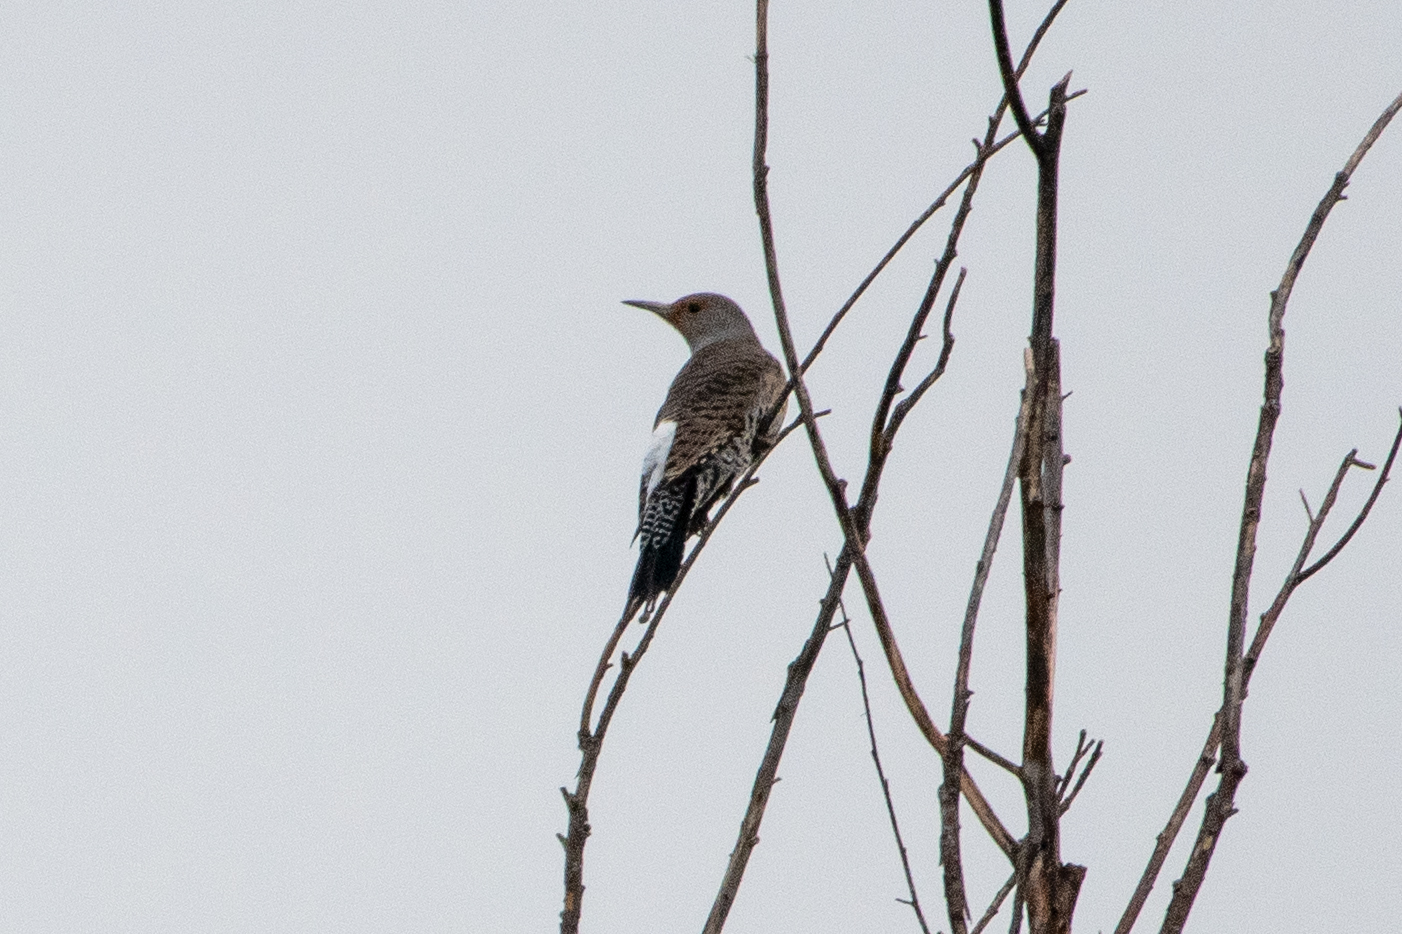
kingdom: Animalia
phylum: Chordata
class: Aves
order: Piciformes
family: Picidae
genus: Colaptes
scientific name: Colaptes auratus
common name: Northern flicker
